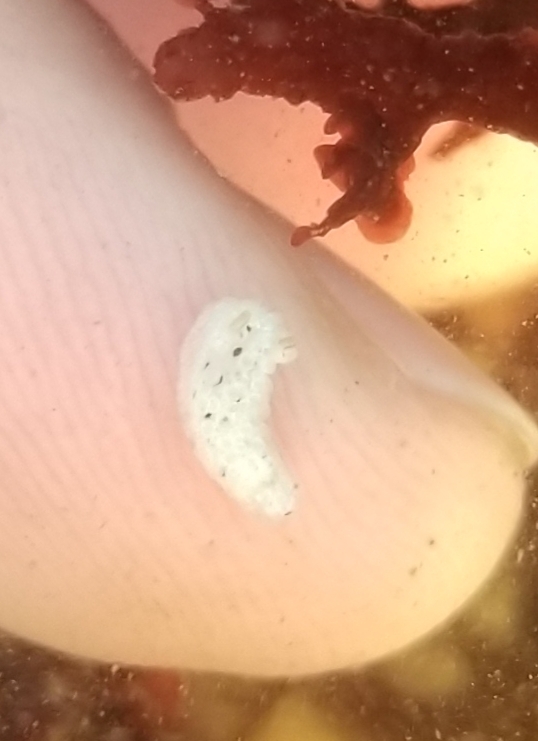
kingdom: Animalia
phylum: Mollusca
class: Gastropoda
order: Nudibranchia
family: Aegiridae
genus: Aegires
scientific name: Aegires albopunctatus
